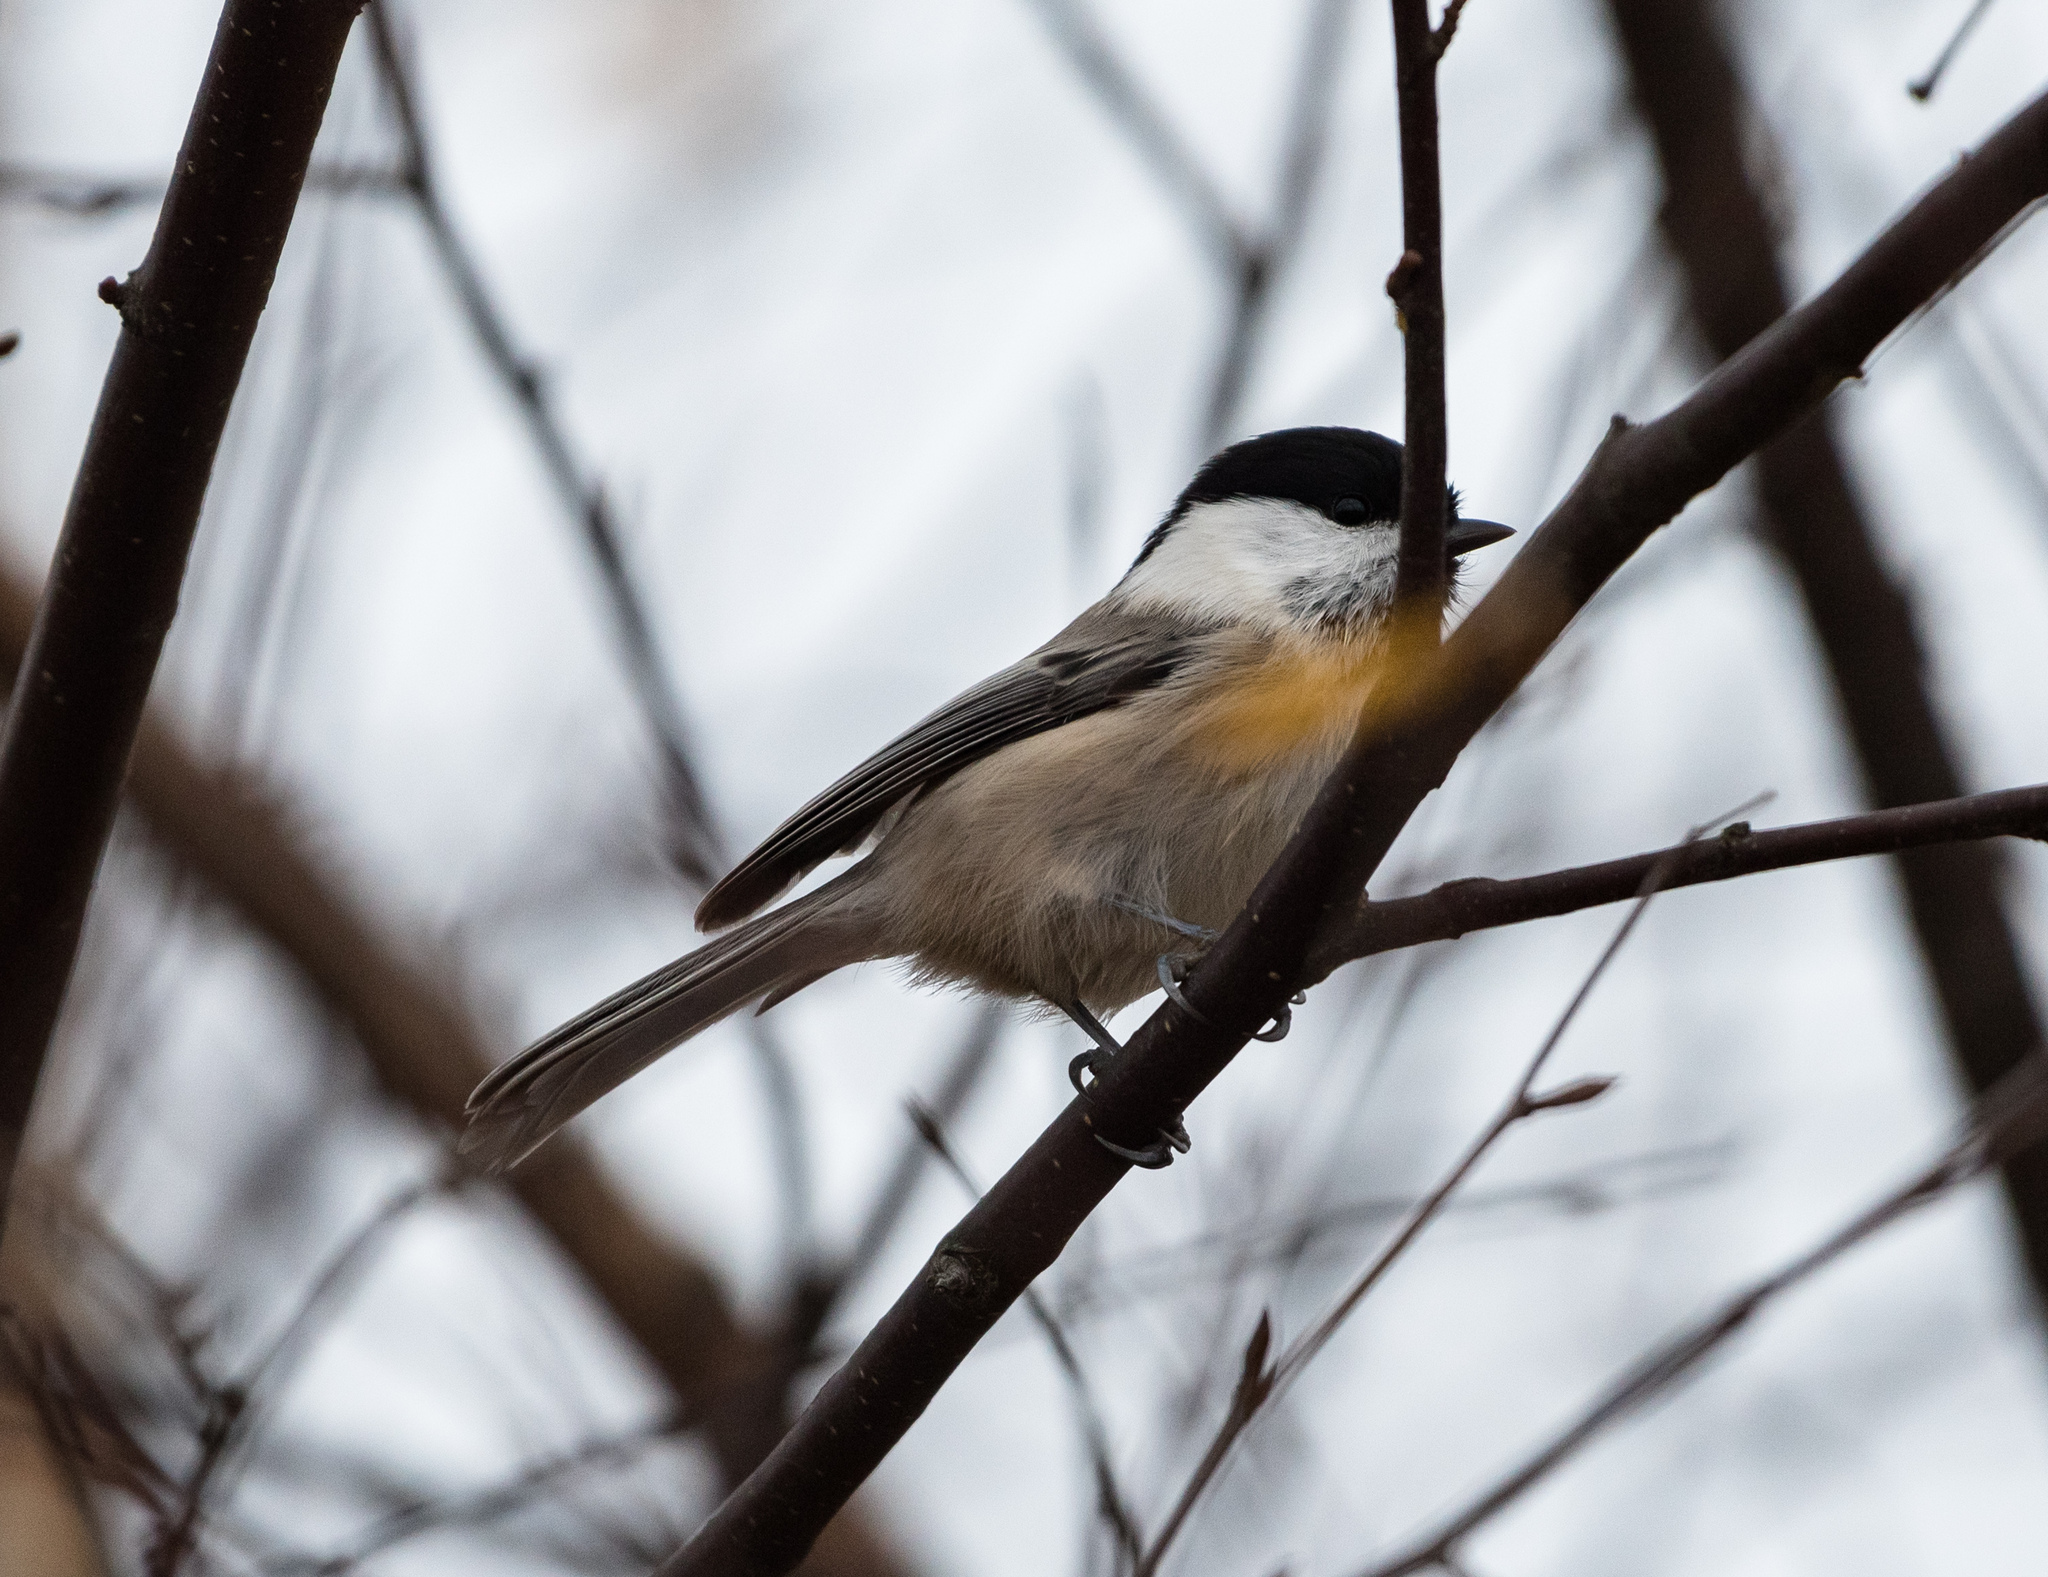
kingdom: Animalia
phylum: Chordata
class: Aves
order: Passeriformes
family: Paridae
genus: Poecile
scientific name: Poecile montanus
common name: Willow tit
